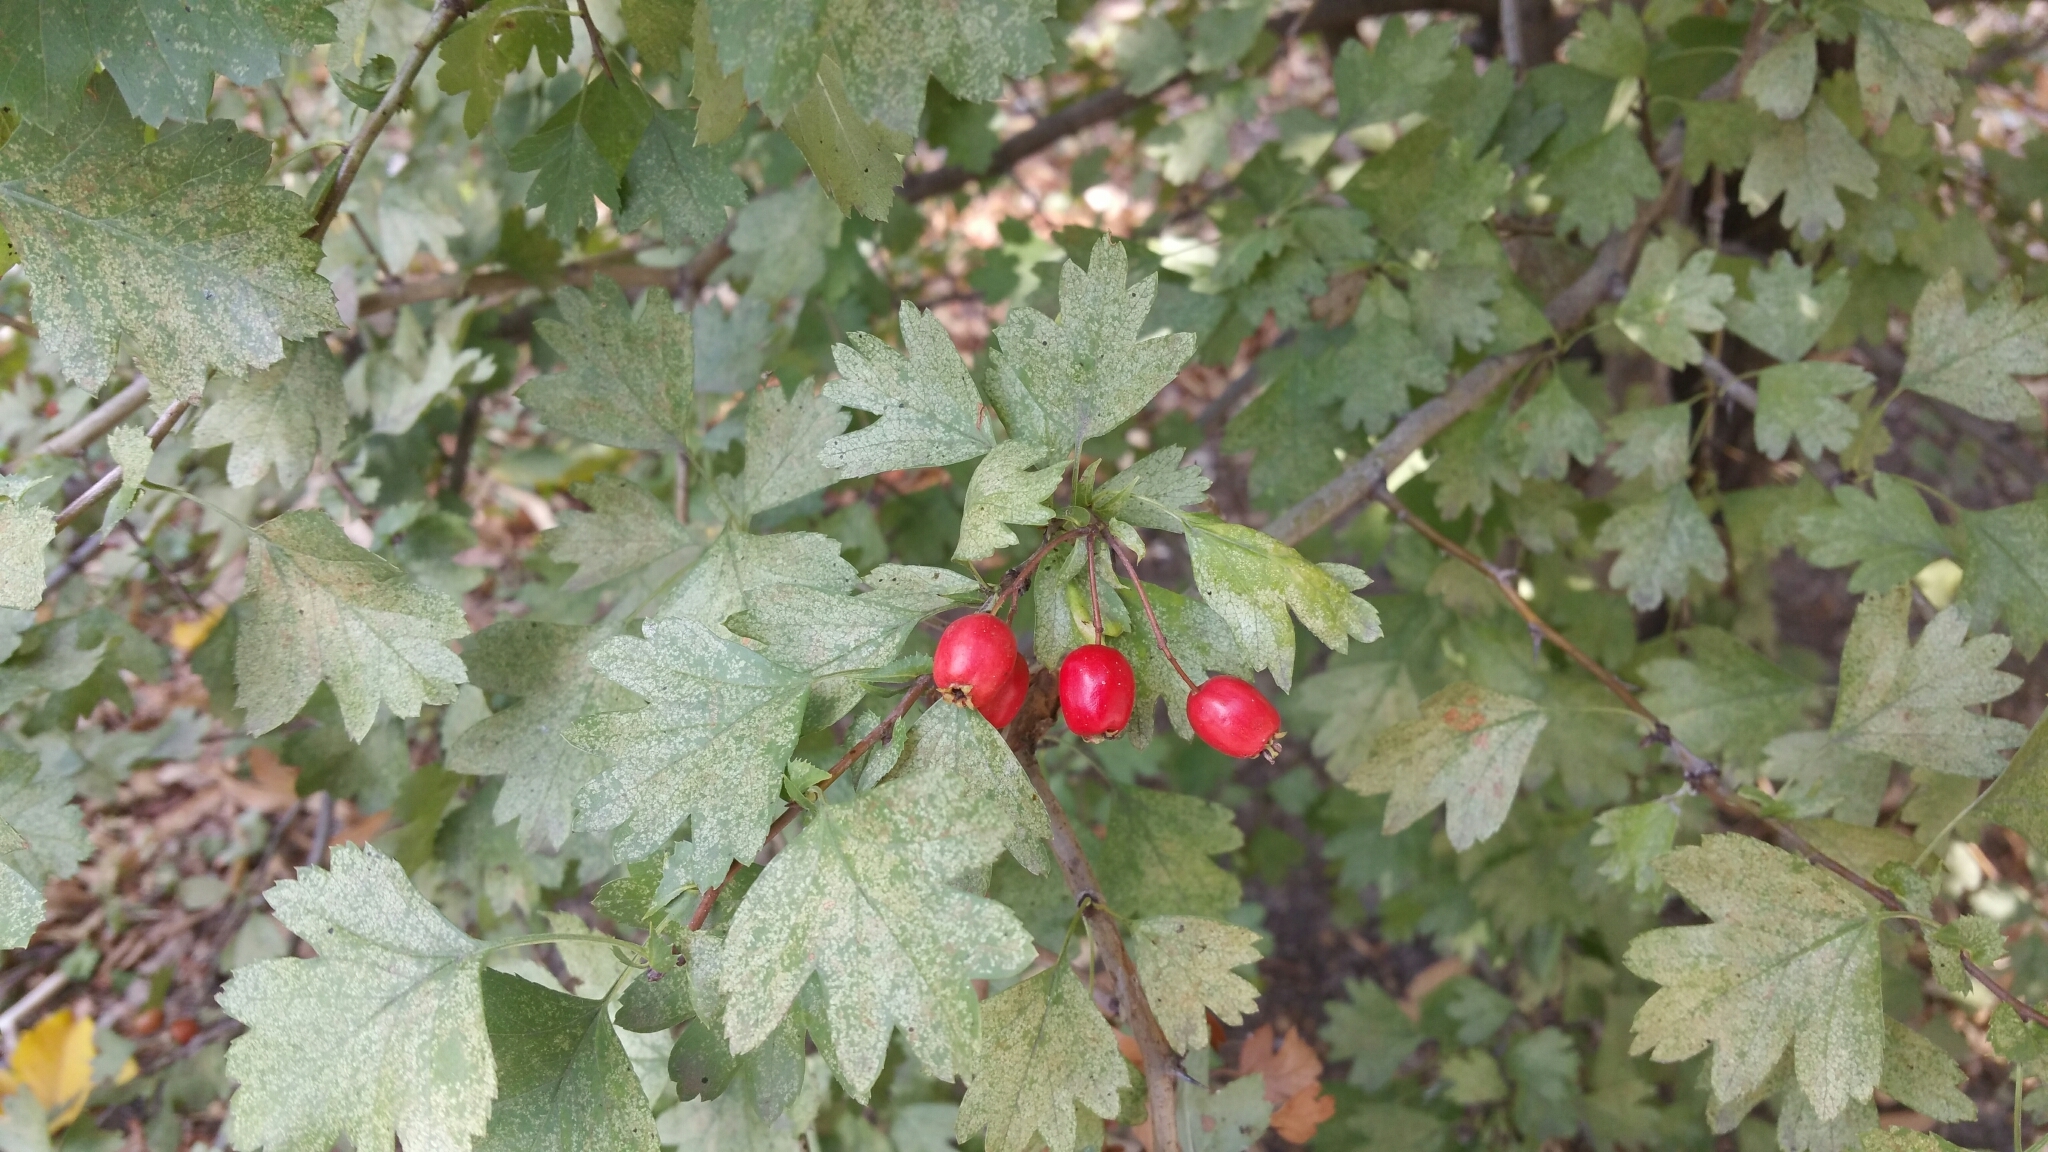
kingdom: Plantae
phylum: Tracheophyta
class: Magnoliopsida
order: Rosales
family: Rosaceae
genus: Crataegus
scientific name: Crataegus monogyna
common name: Hawthorn
